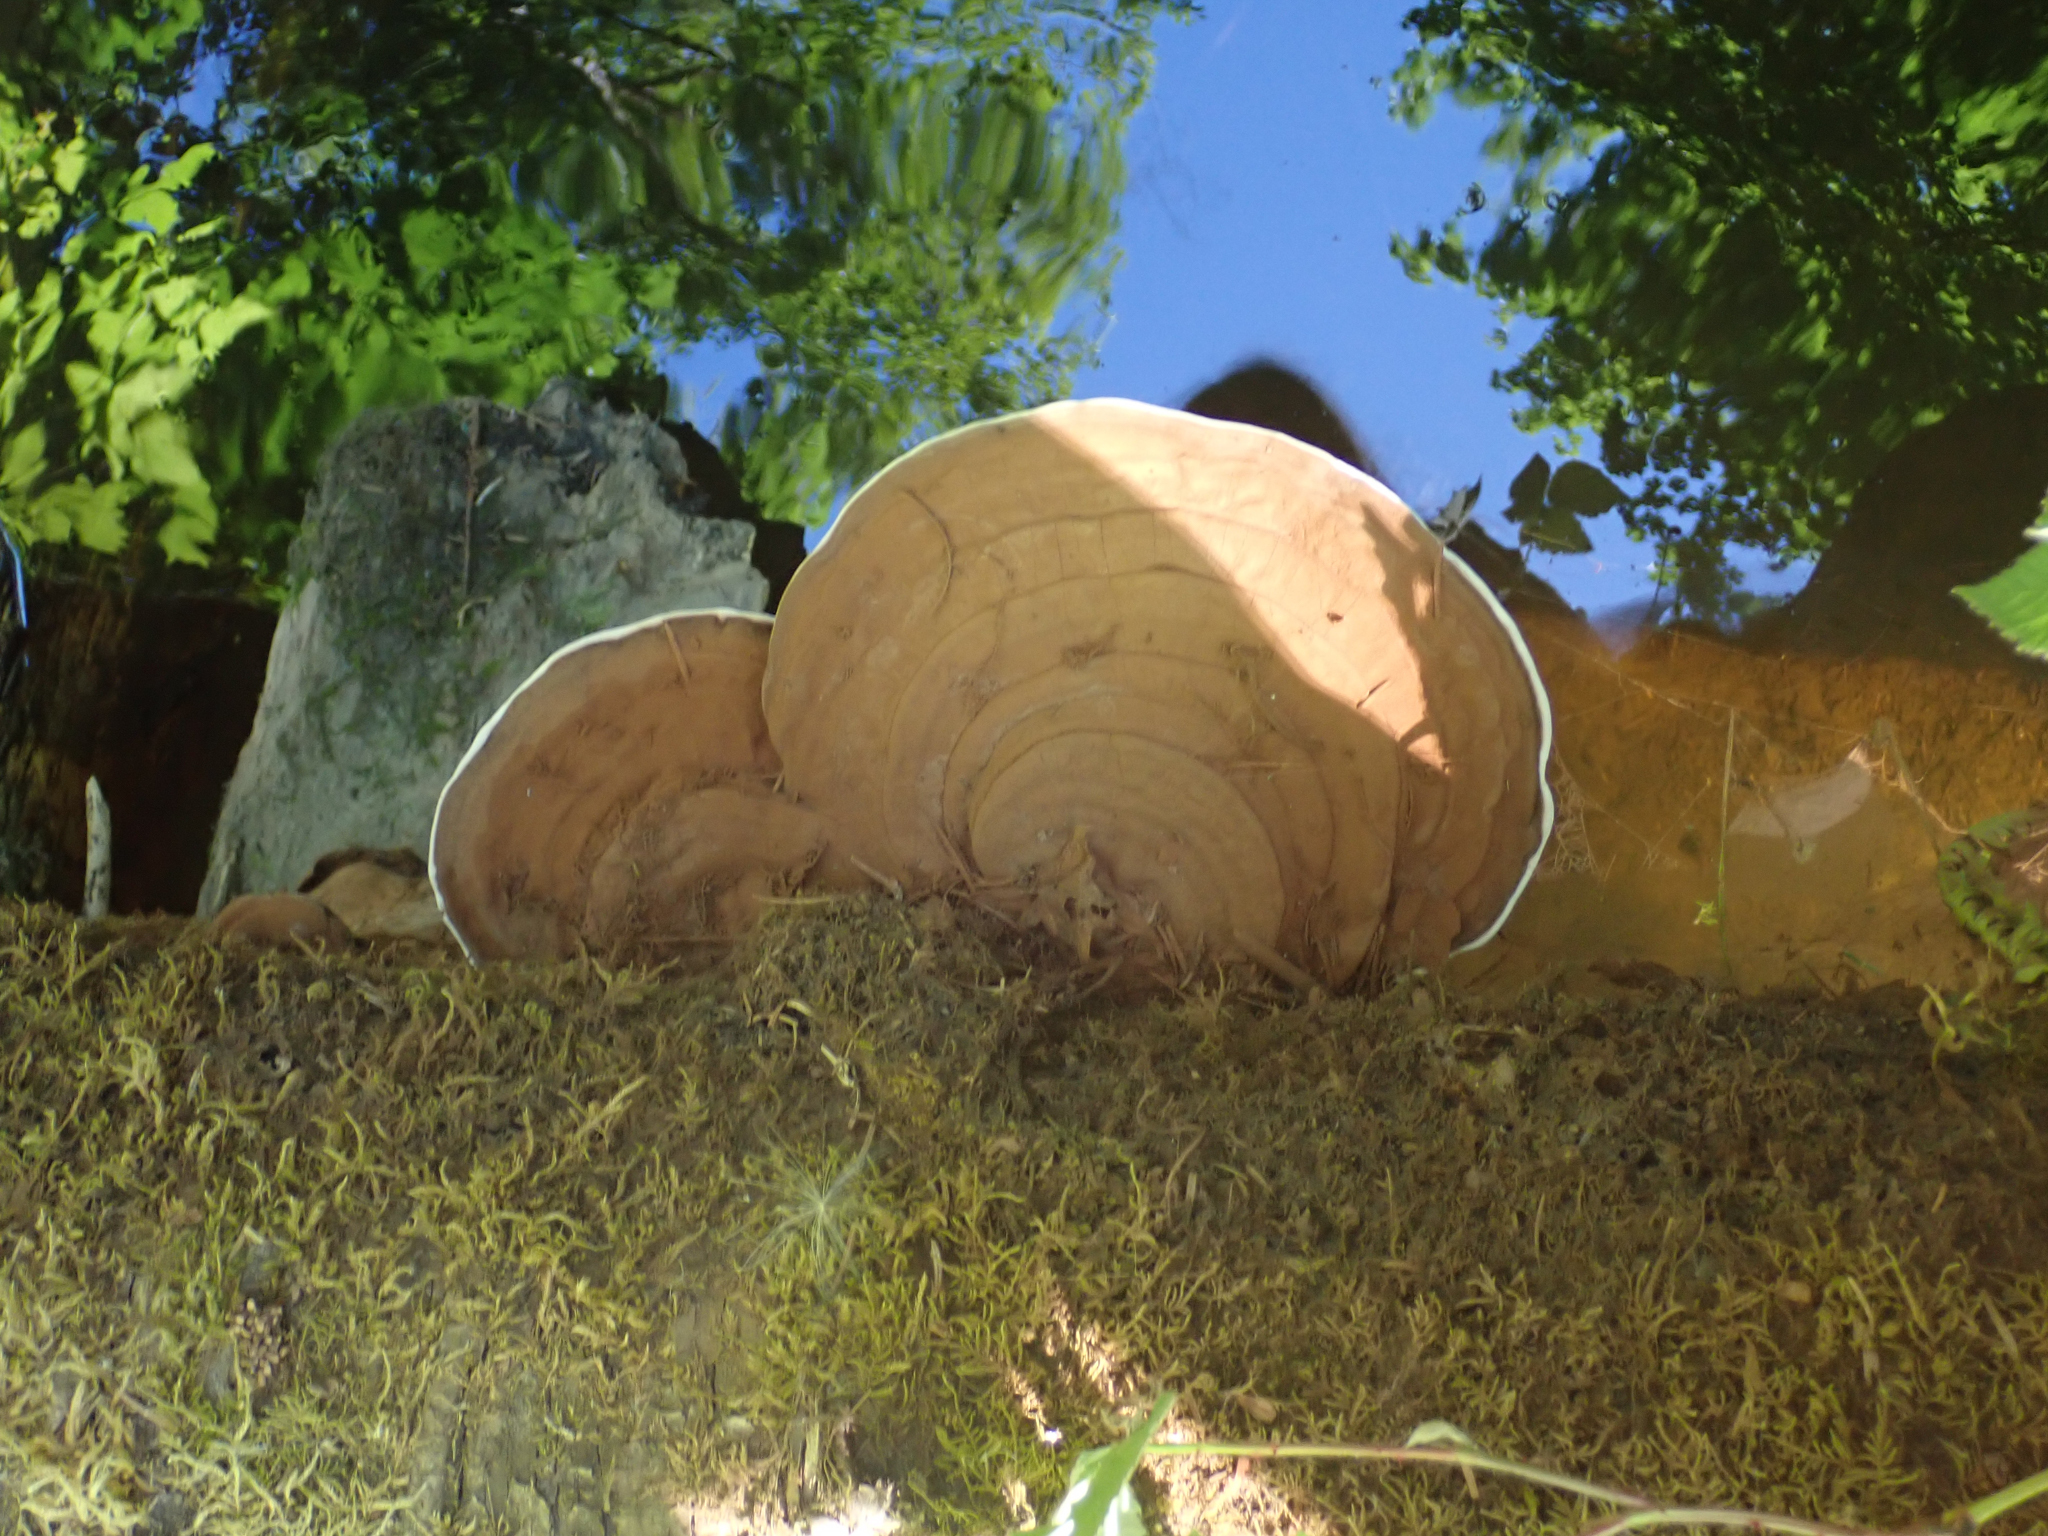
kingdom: Fungi
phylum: Basidiomycota
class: Agaricomycetes
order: Polyporales
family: Polyporaceae
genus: Ganoderma
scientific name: Ganoderma applanatum
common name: Artist's bracket
